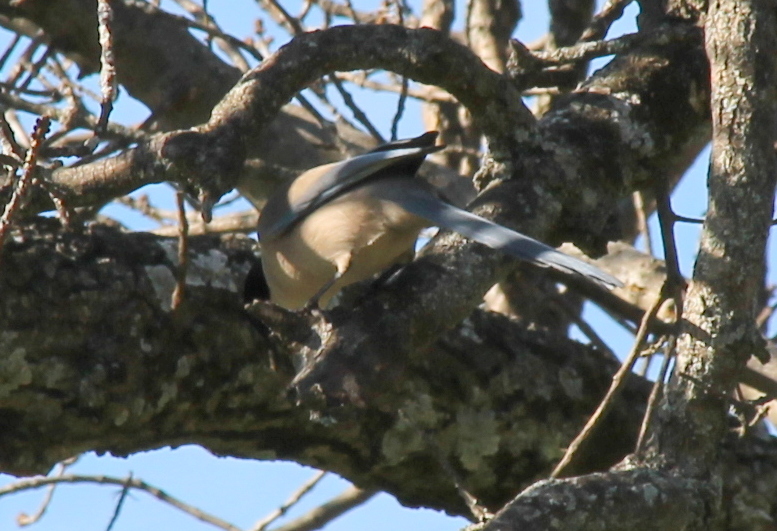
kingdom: Animalia
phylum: Chordata
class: Aves
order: Passeriformes
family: Corvidae
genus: Cyanopica
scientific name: Cyanopica cooki
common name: Iberian magpie
